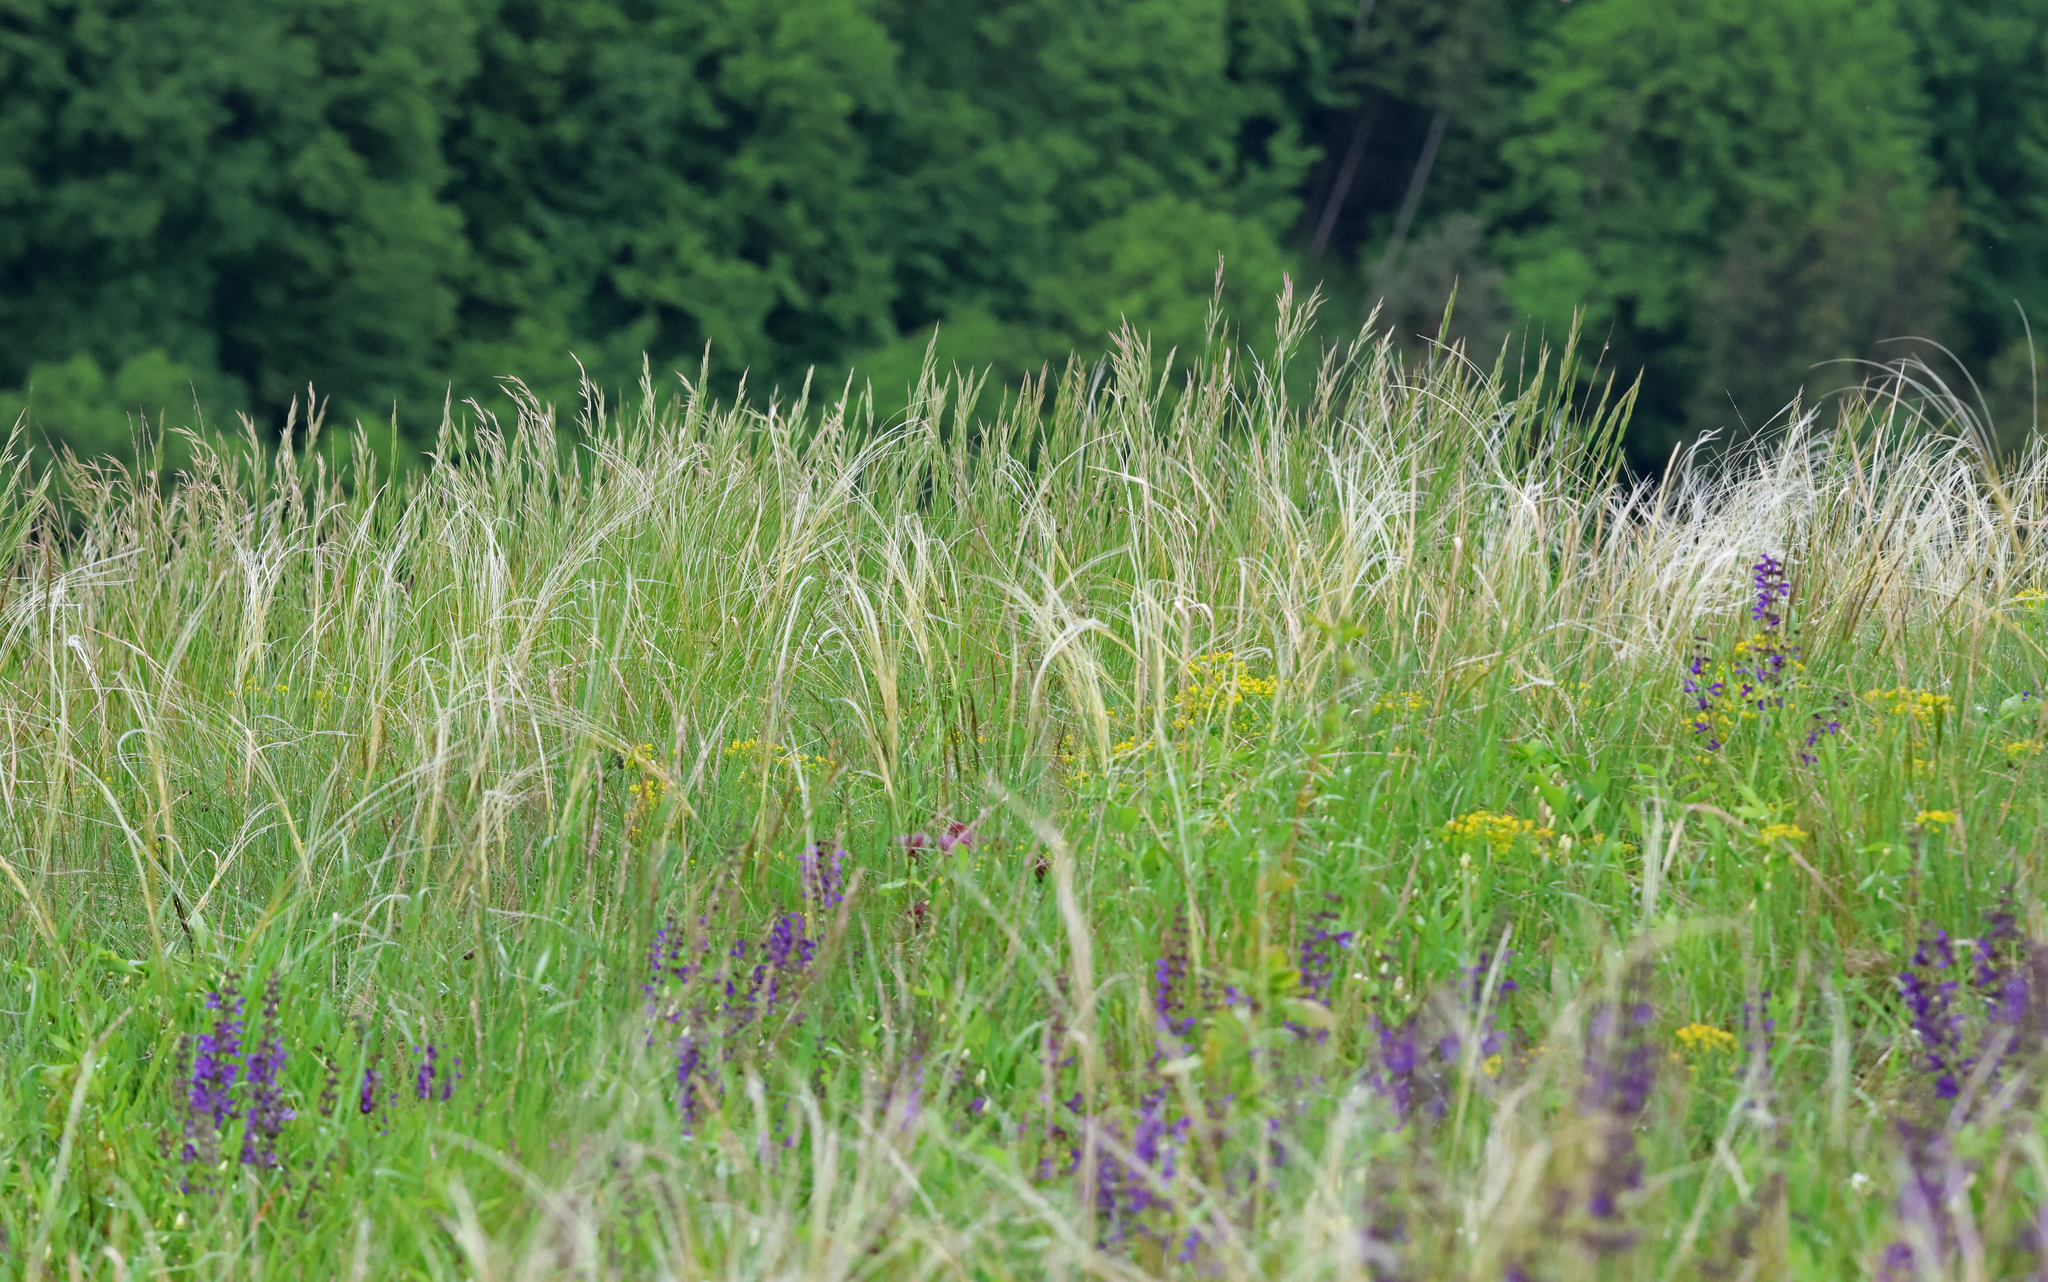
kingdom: Plantae
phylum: Tracheophyta
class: Liliopsida
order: Poales
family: Poaceae
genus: Stipa
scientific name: Stipa pennata
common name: European feather grass
